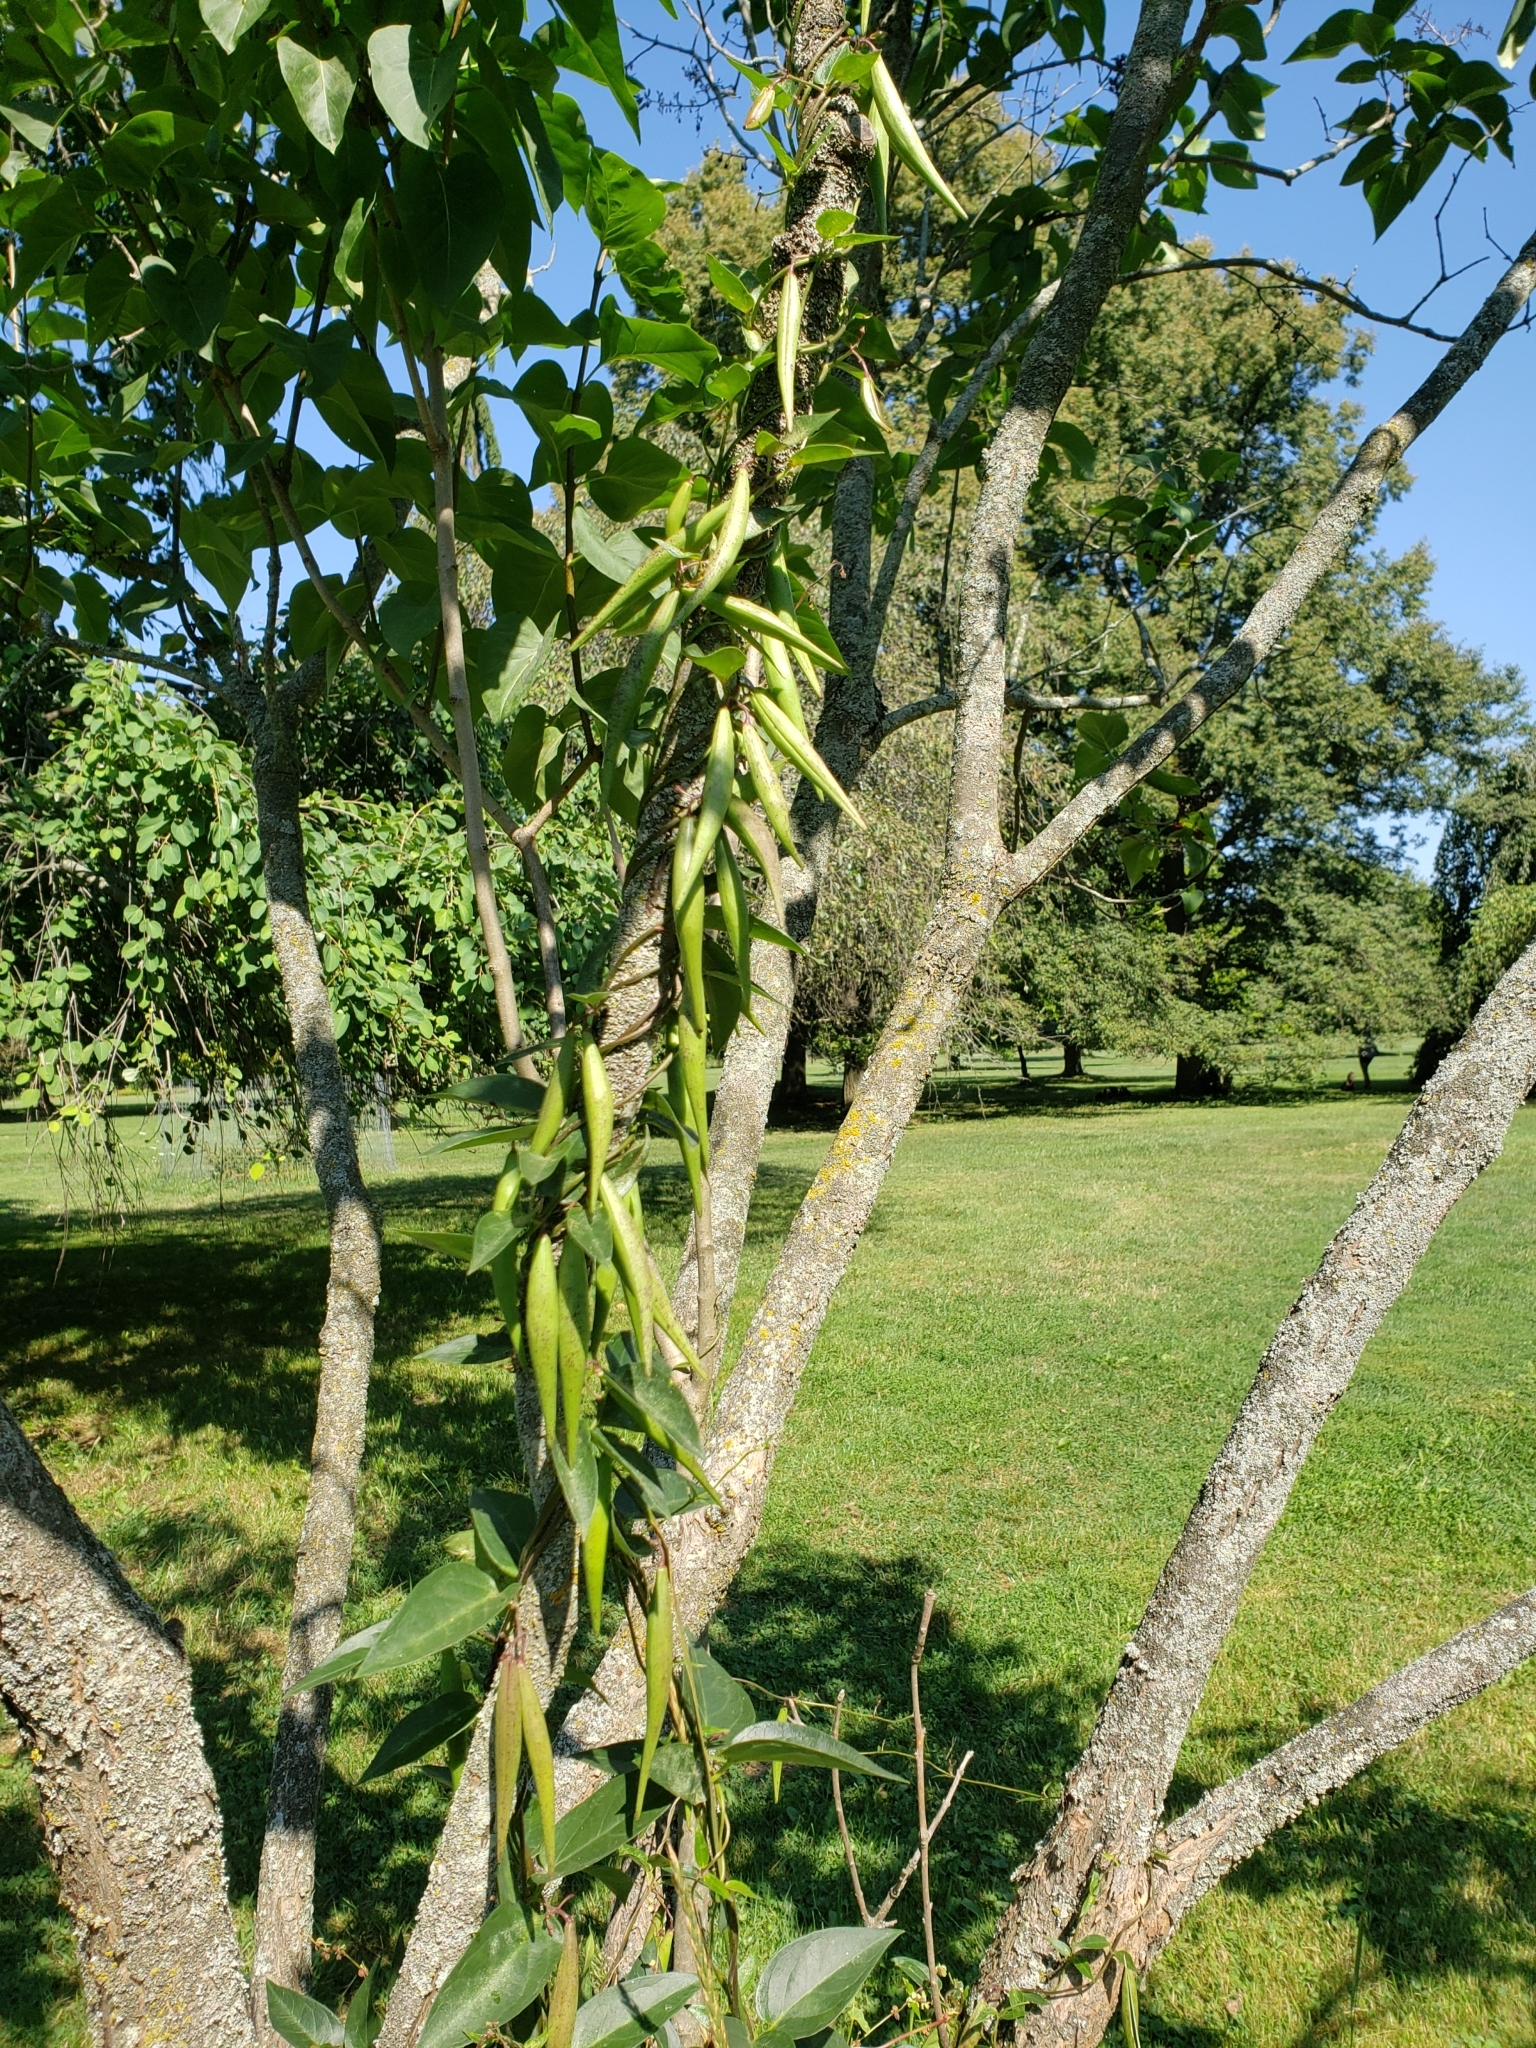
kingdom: Plantae
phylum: Tracheophyta
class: Magnoliopsida
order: Gentianales
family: Apocynaceae
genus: Vincetoxicum
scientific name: Vincetoxicum rossicum
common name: Dog-strangling vine
